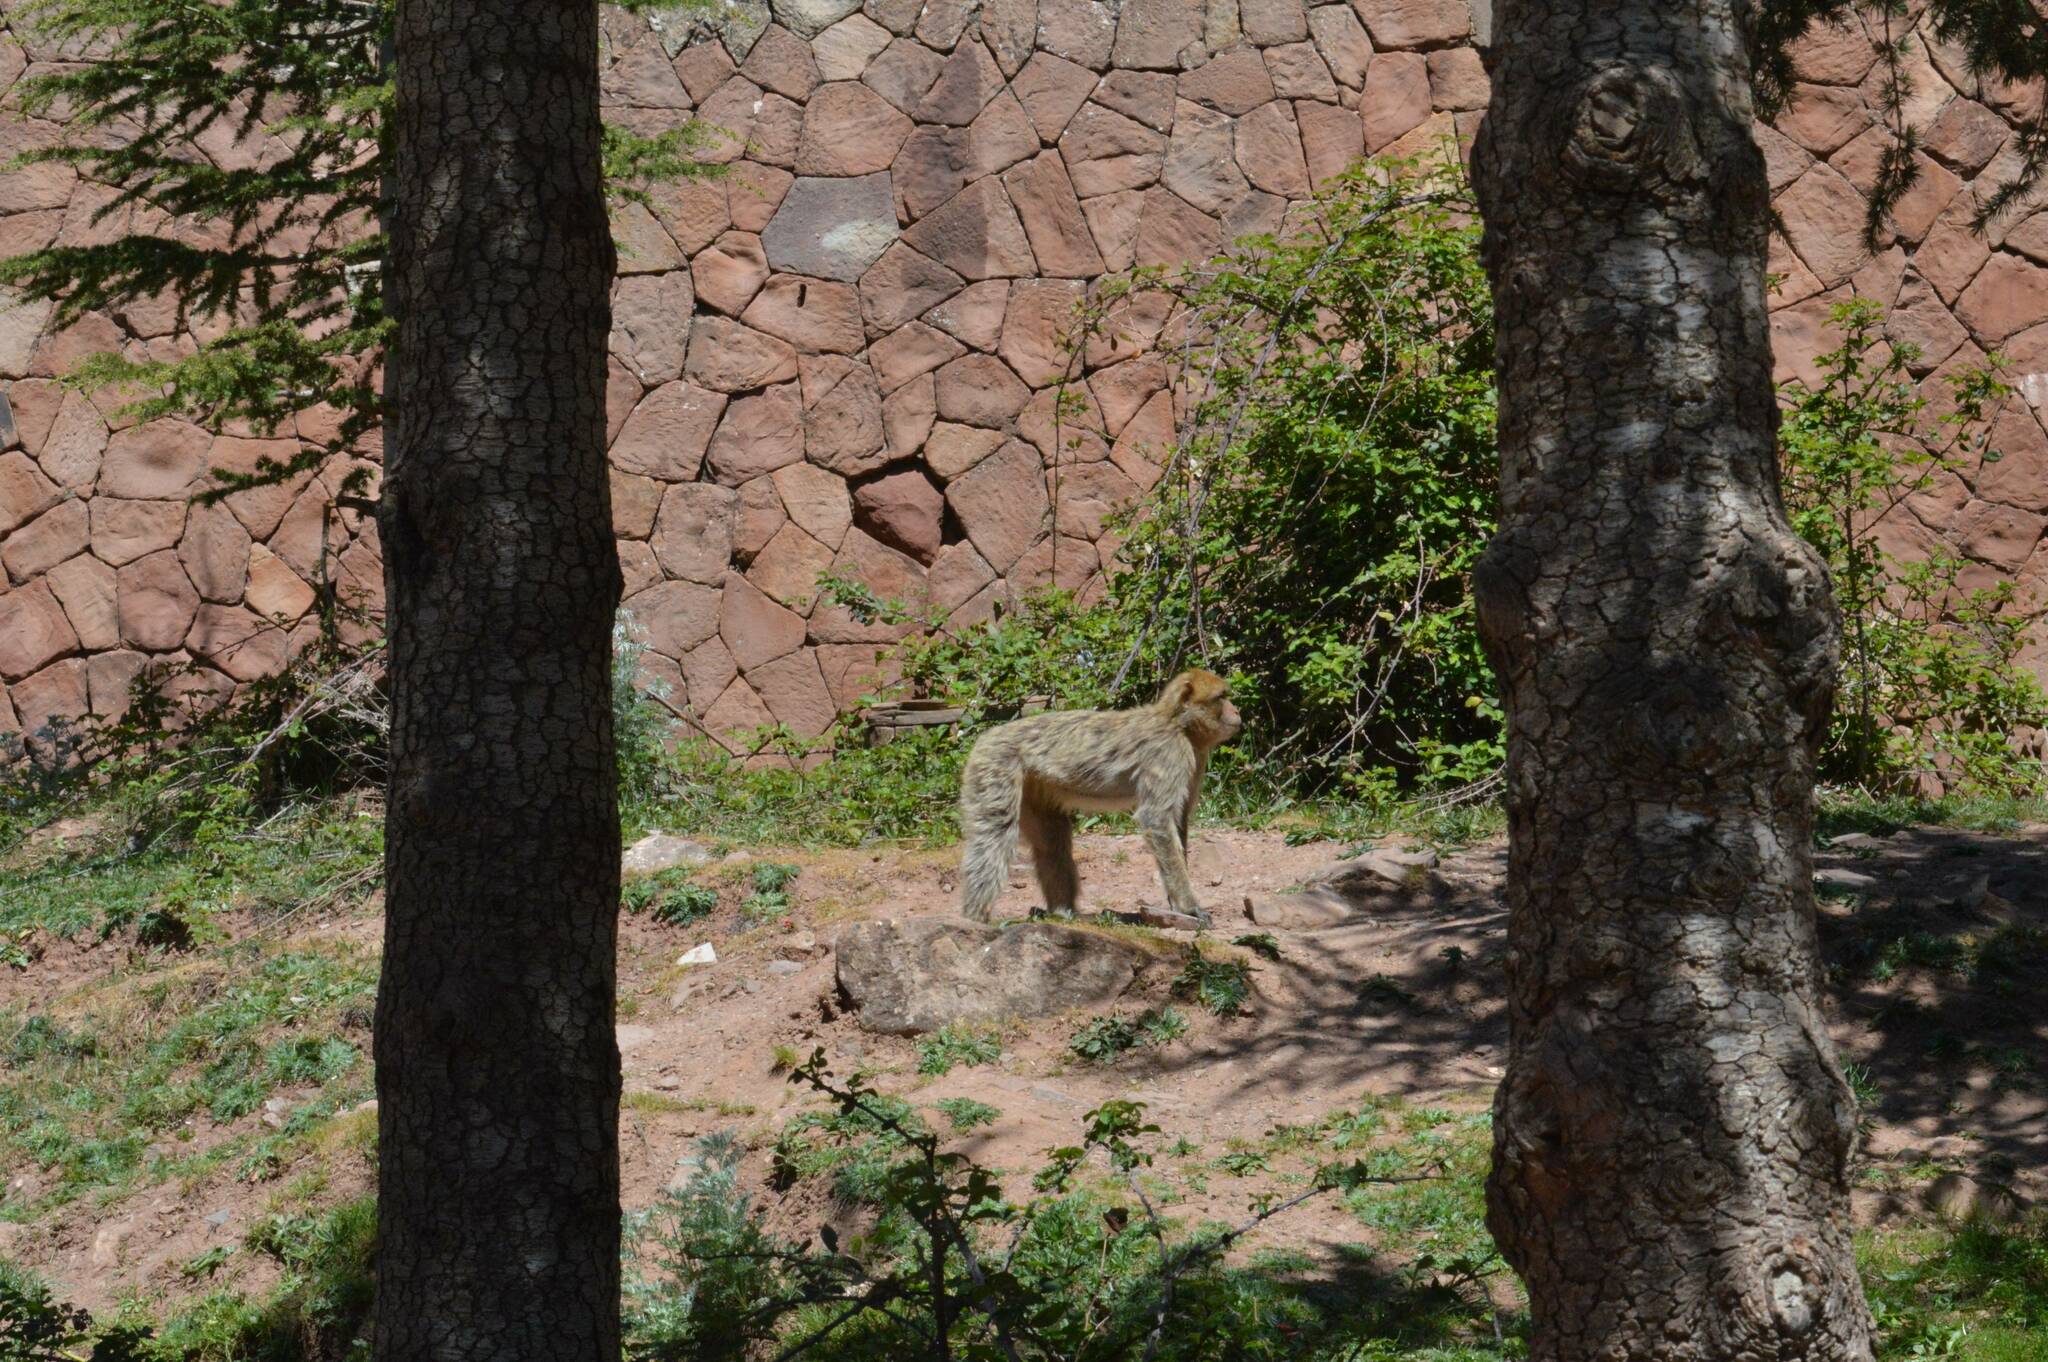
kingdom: Animalia
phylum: Chordata
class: Mammalia
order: Primates
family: Cercopithecidae
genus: Macaca
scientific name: Macaca sylvanus
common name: Barbary macaque
